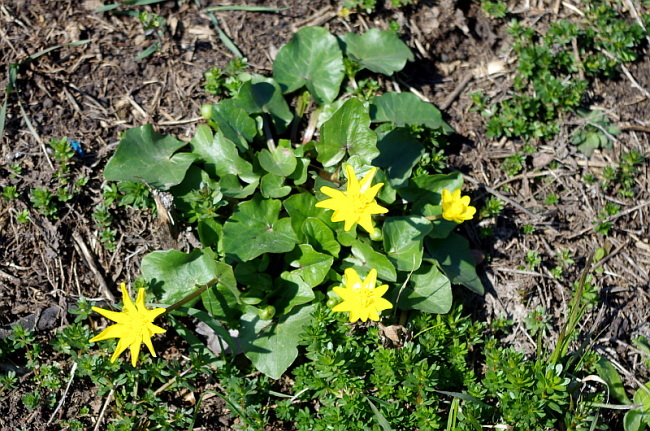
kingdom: Plantae
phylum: Tracheophyta
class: Magnoliopsida
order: Ranunculales
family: Ranunculaceae
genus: Ficaria
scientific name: Ficaria verna
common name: Lesser celandine
